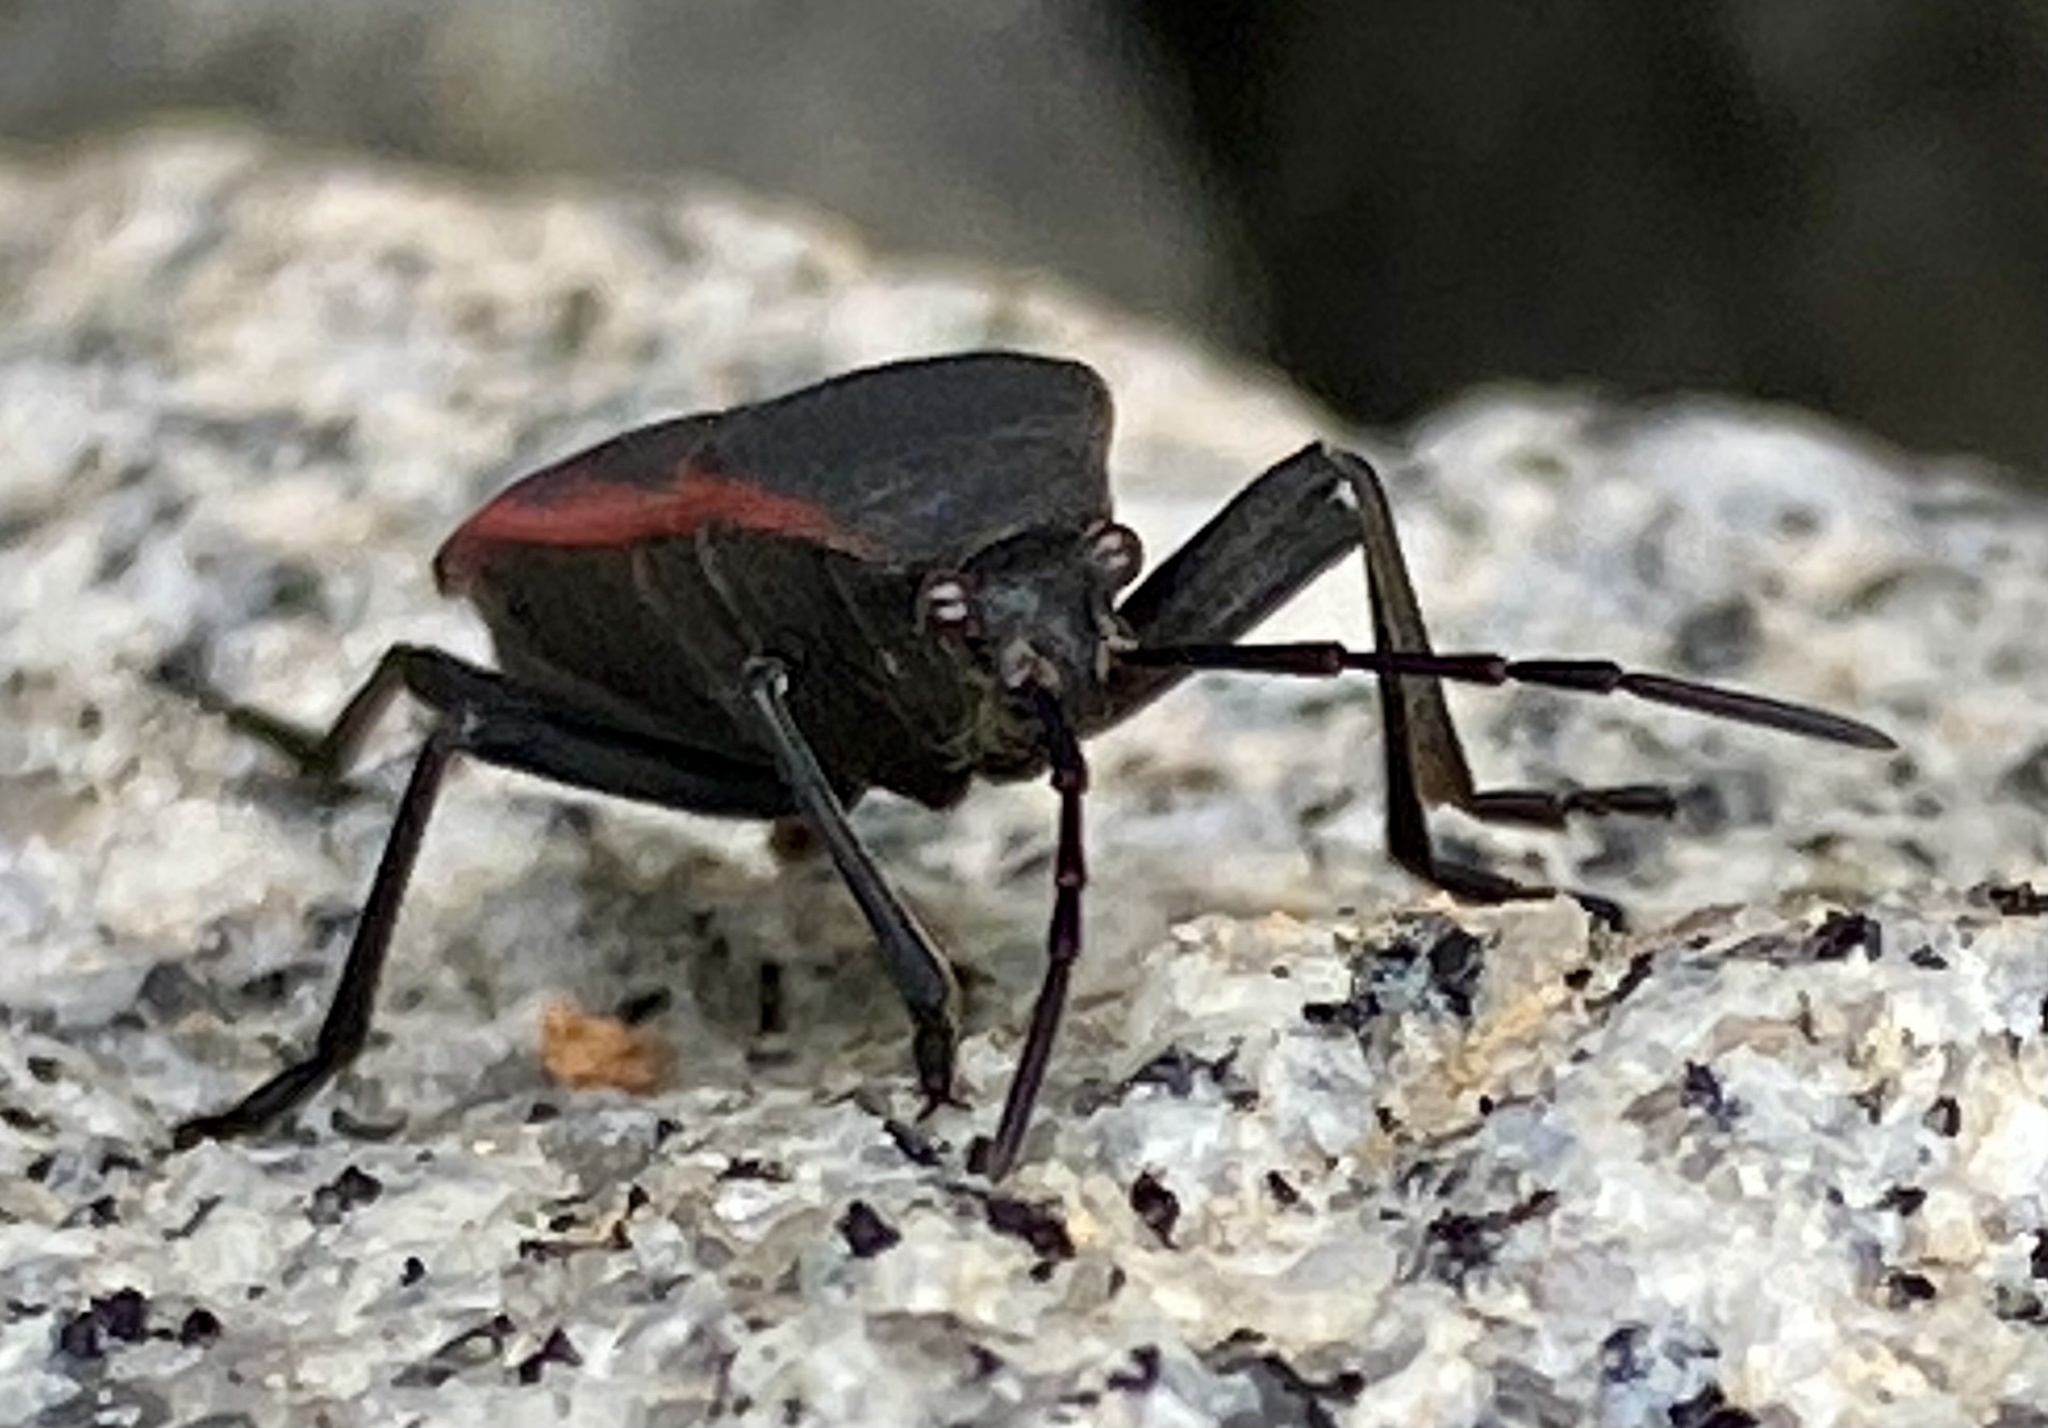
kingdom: Animalia
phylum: Arthropoda
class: Insecta
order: Hemiptera
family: Largidae
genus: Largus
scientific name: Largus rufipennis
